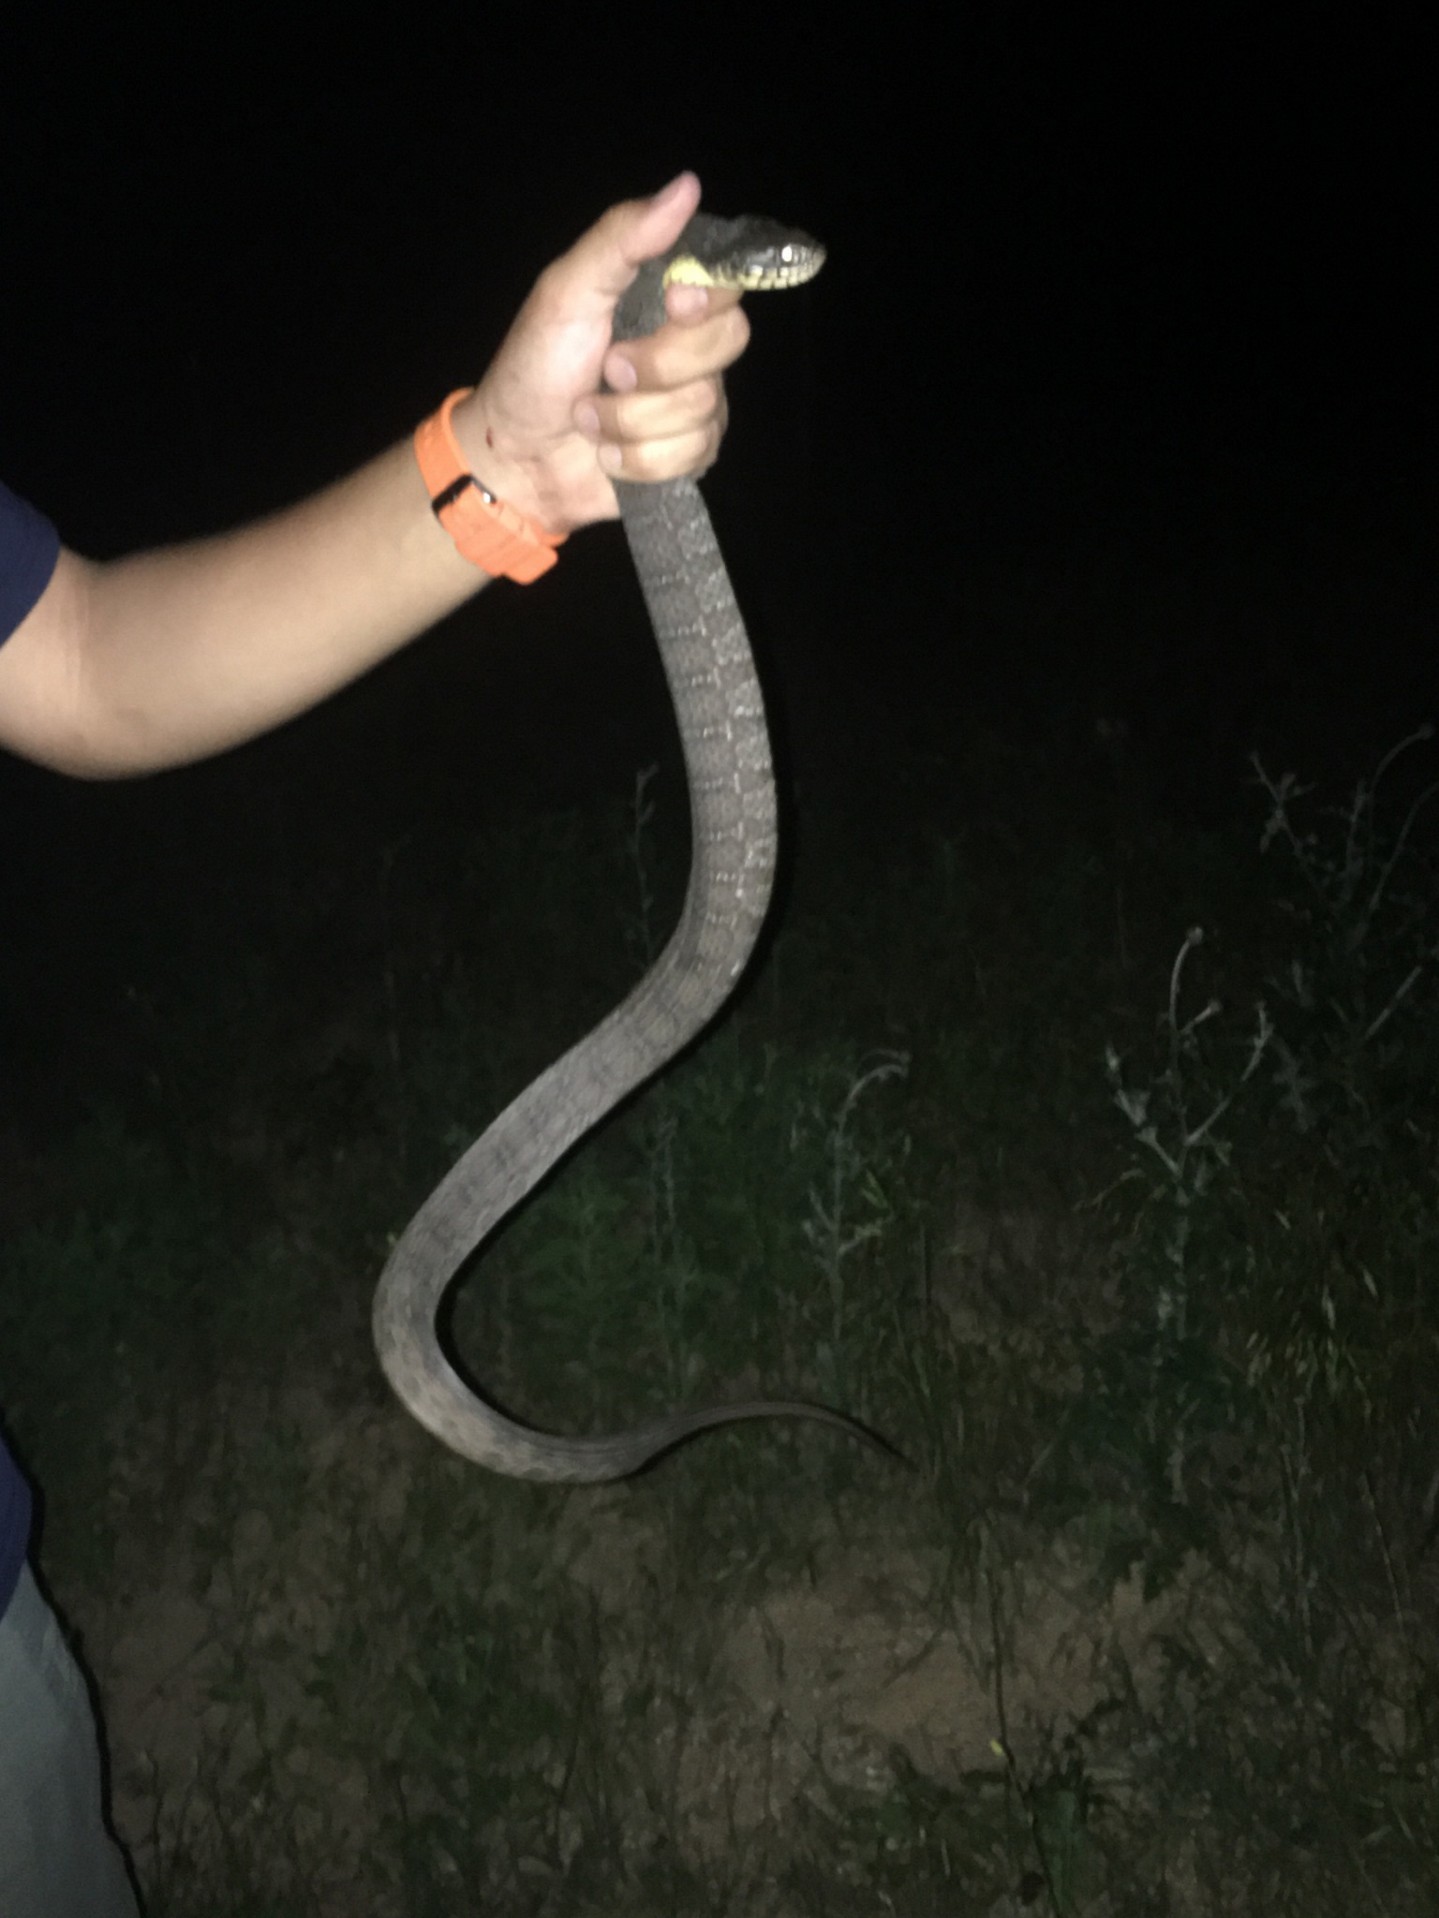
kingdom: Animalia
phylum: Chordata
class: Squamata
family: Colubridae
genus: Nerodia
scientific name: Nerodia erythrogaster
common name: Plainbelly water snake
